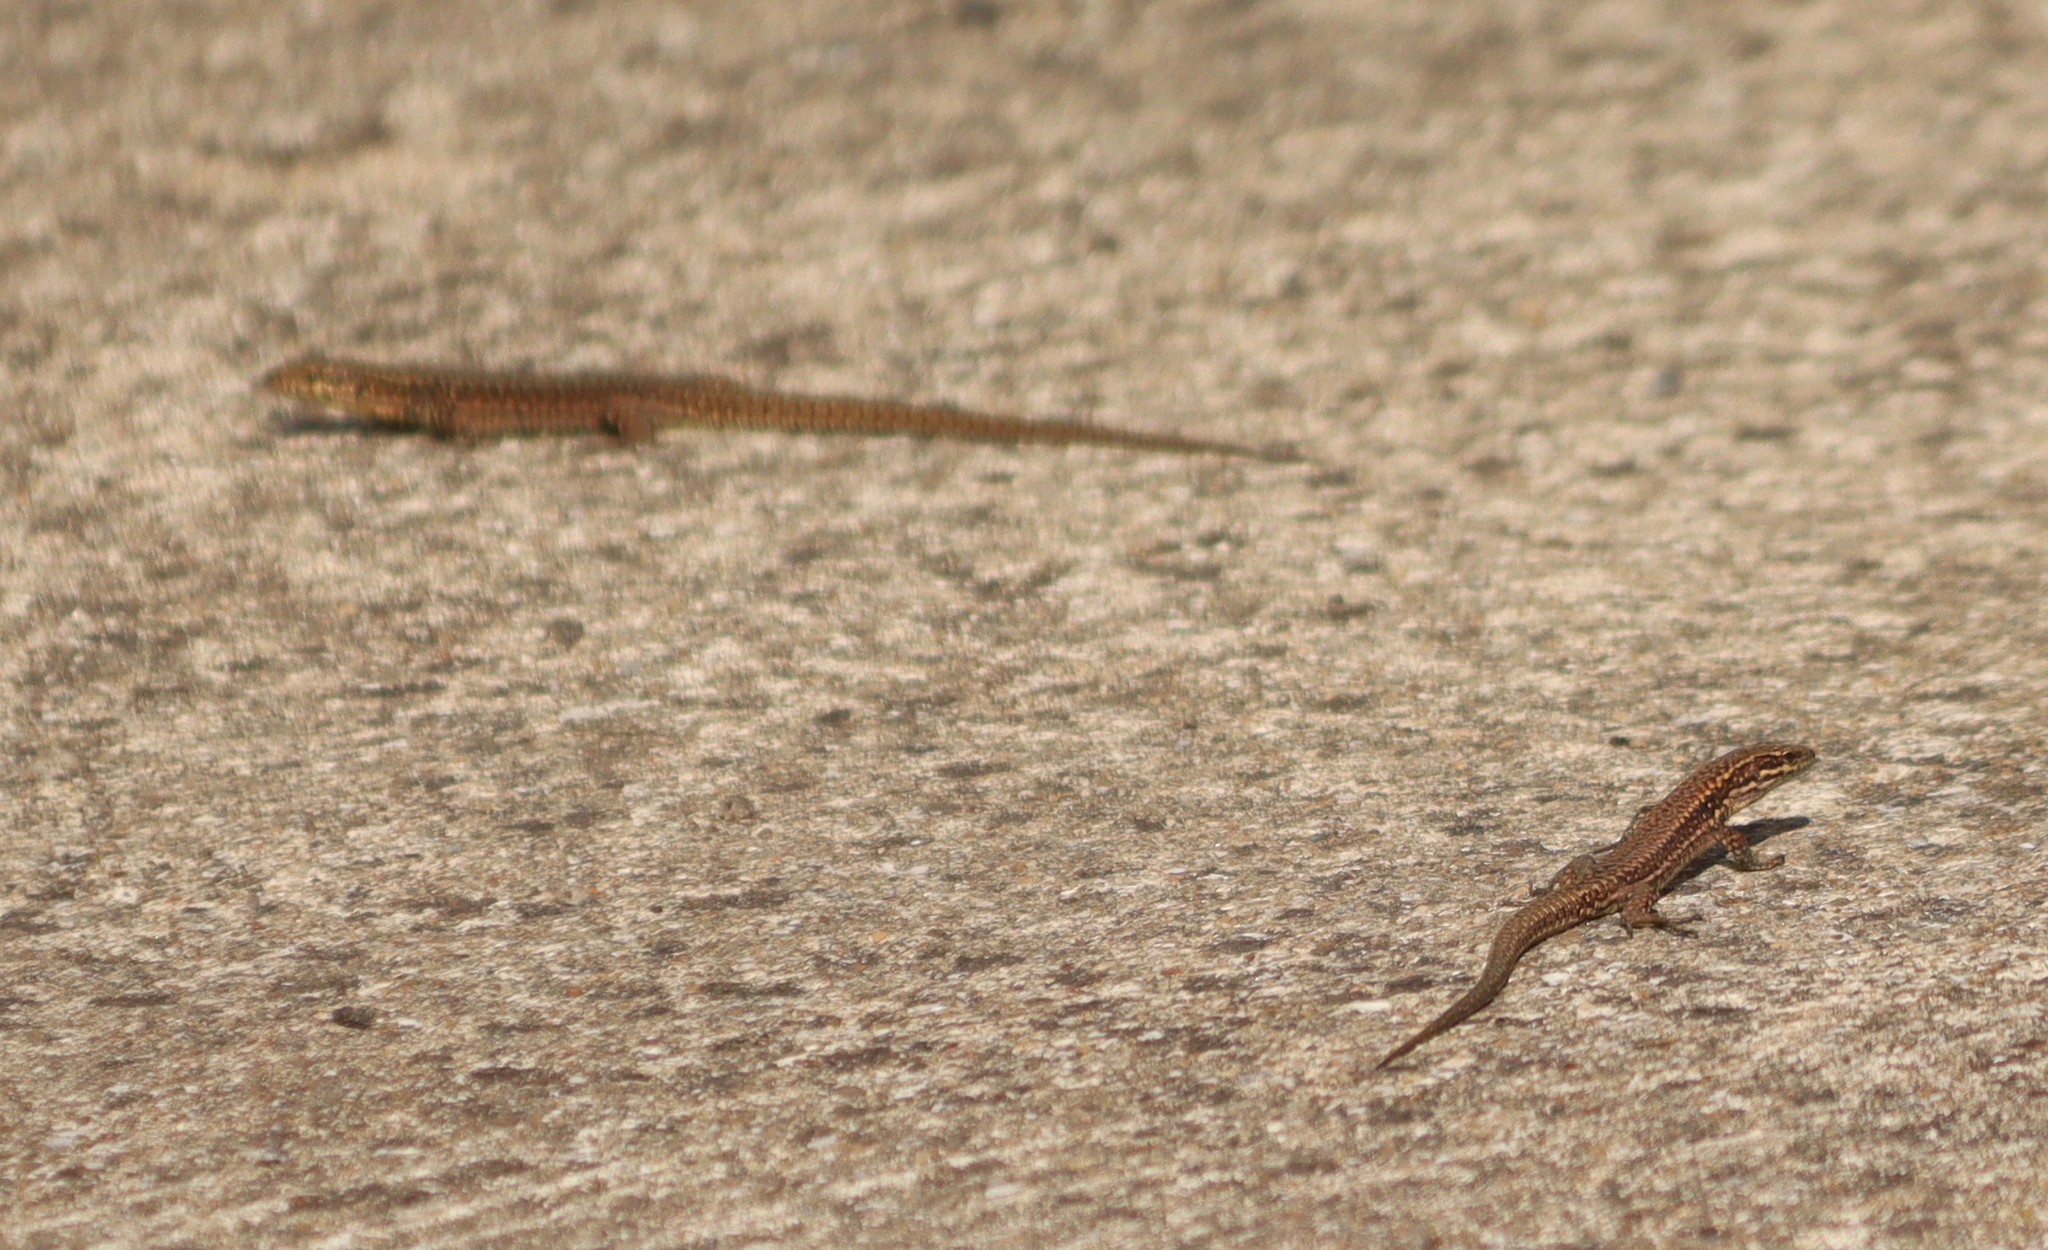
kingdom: Animalia
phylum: Chordata
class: Squamata
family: Lacertidae
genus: Podarcis
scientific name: Podarcis muralis
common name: Common wall lizard
